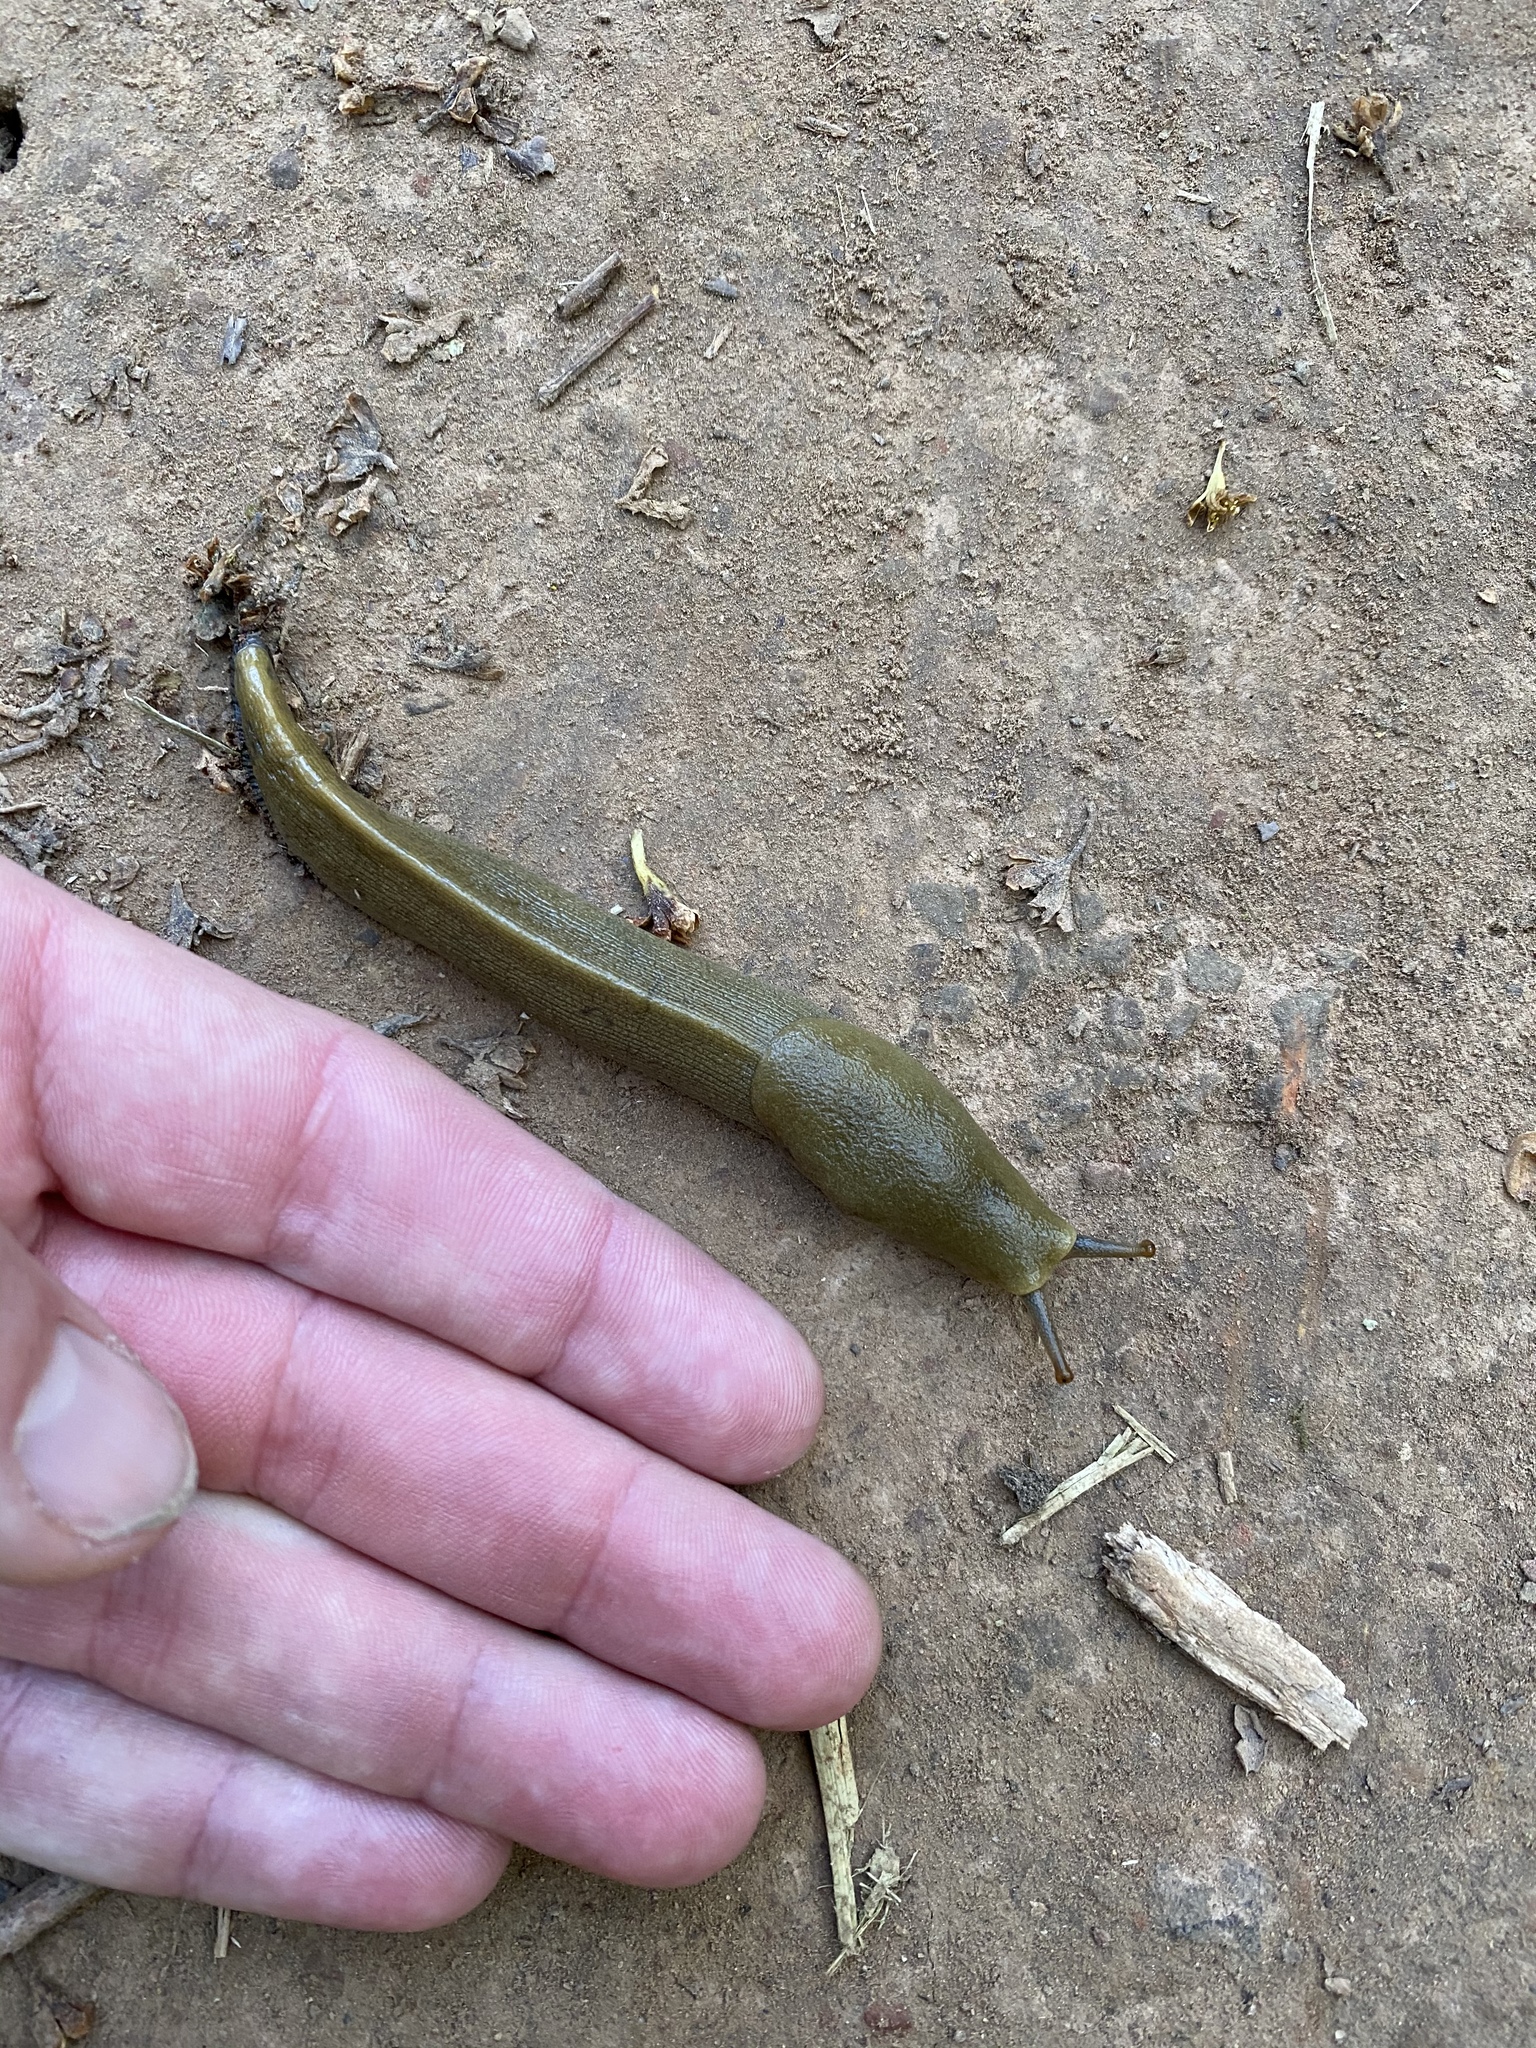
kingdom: Animalia
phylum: Mollusca
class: Gastropoda
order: Stylommatophora
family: Ariolimacidae
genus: Ariolimax
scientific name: Ariolimax buttoni
